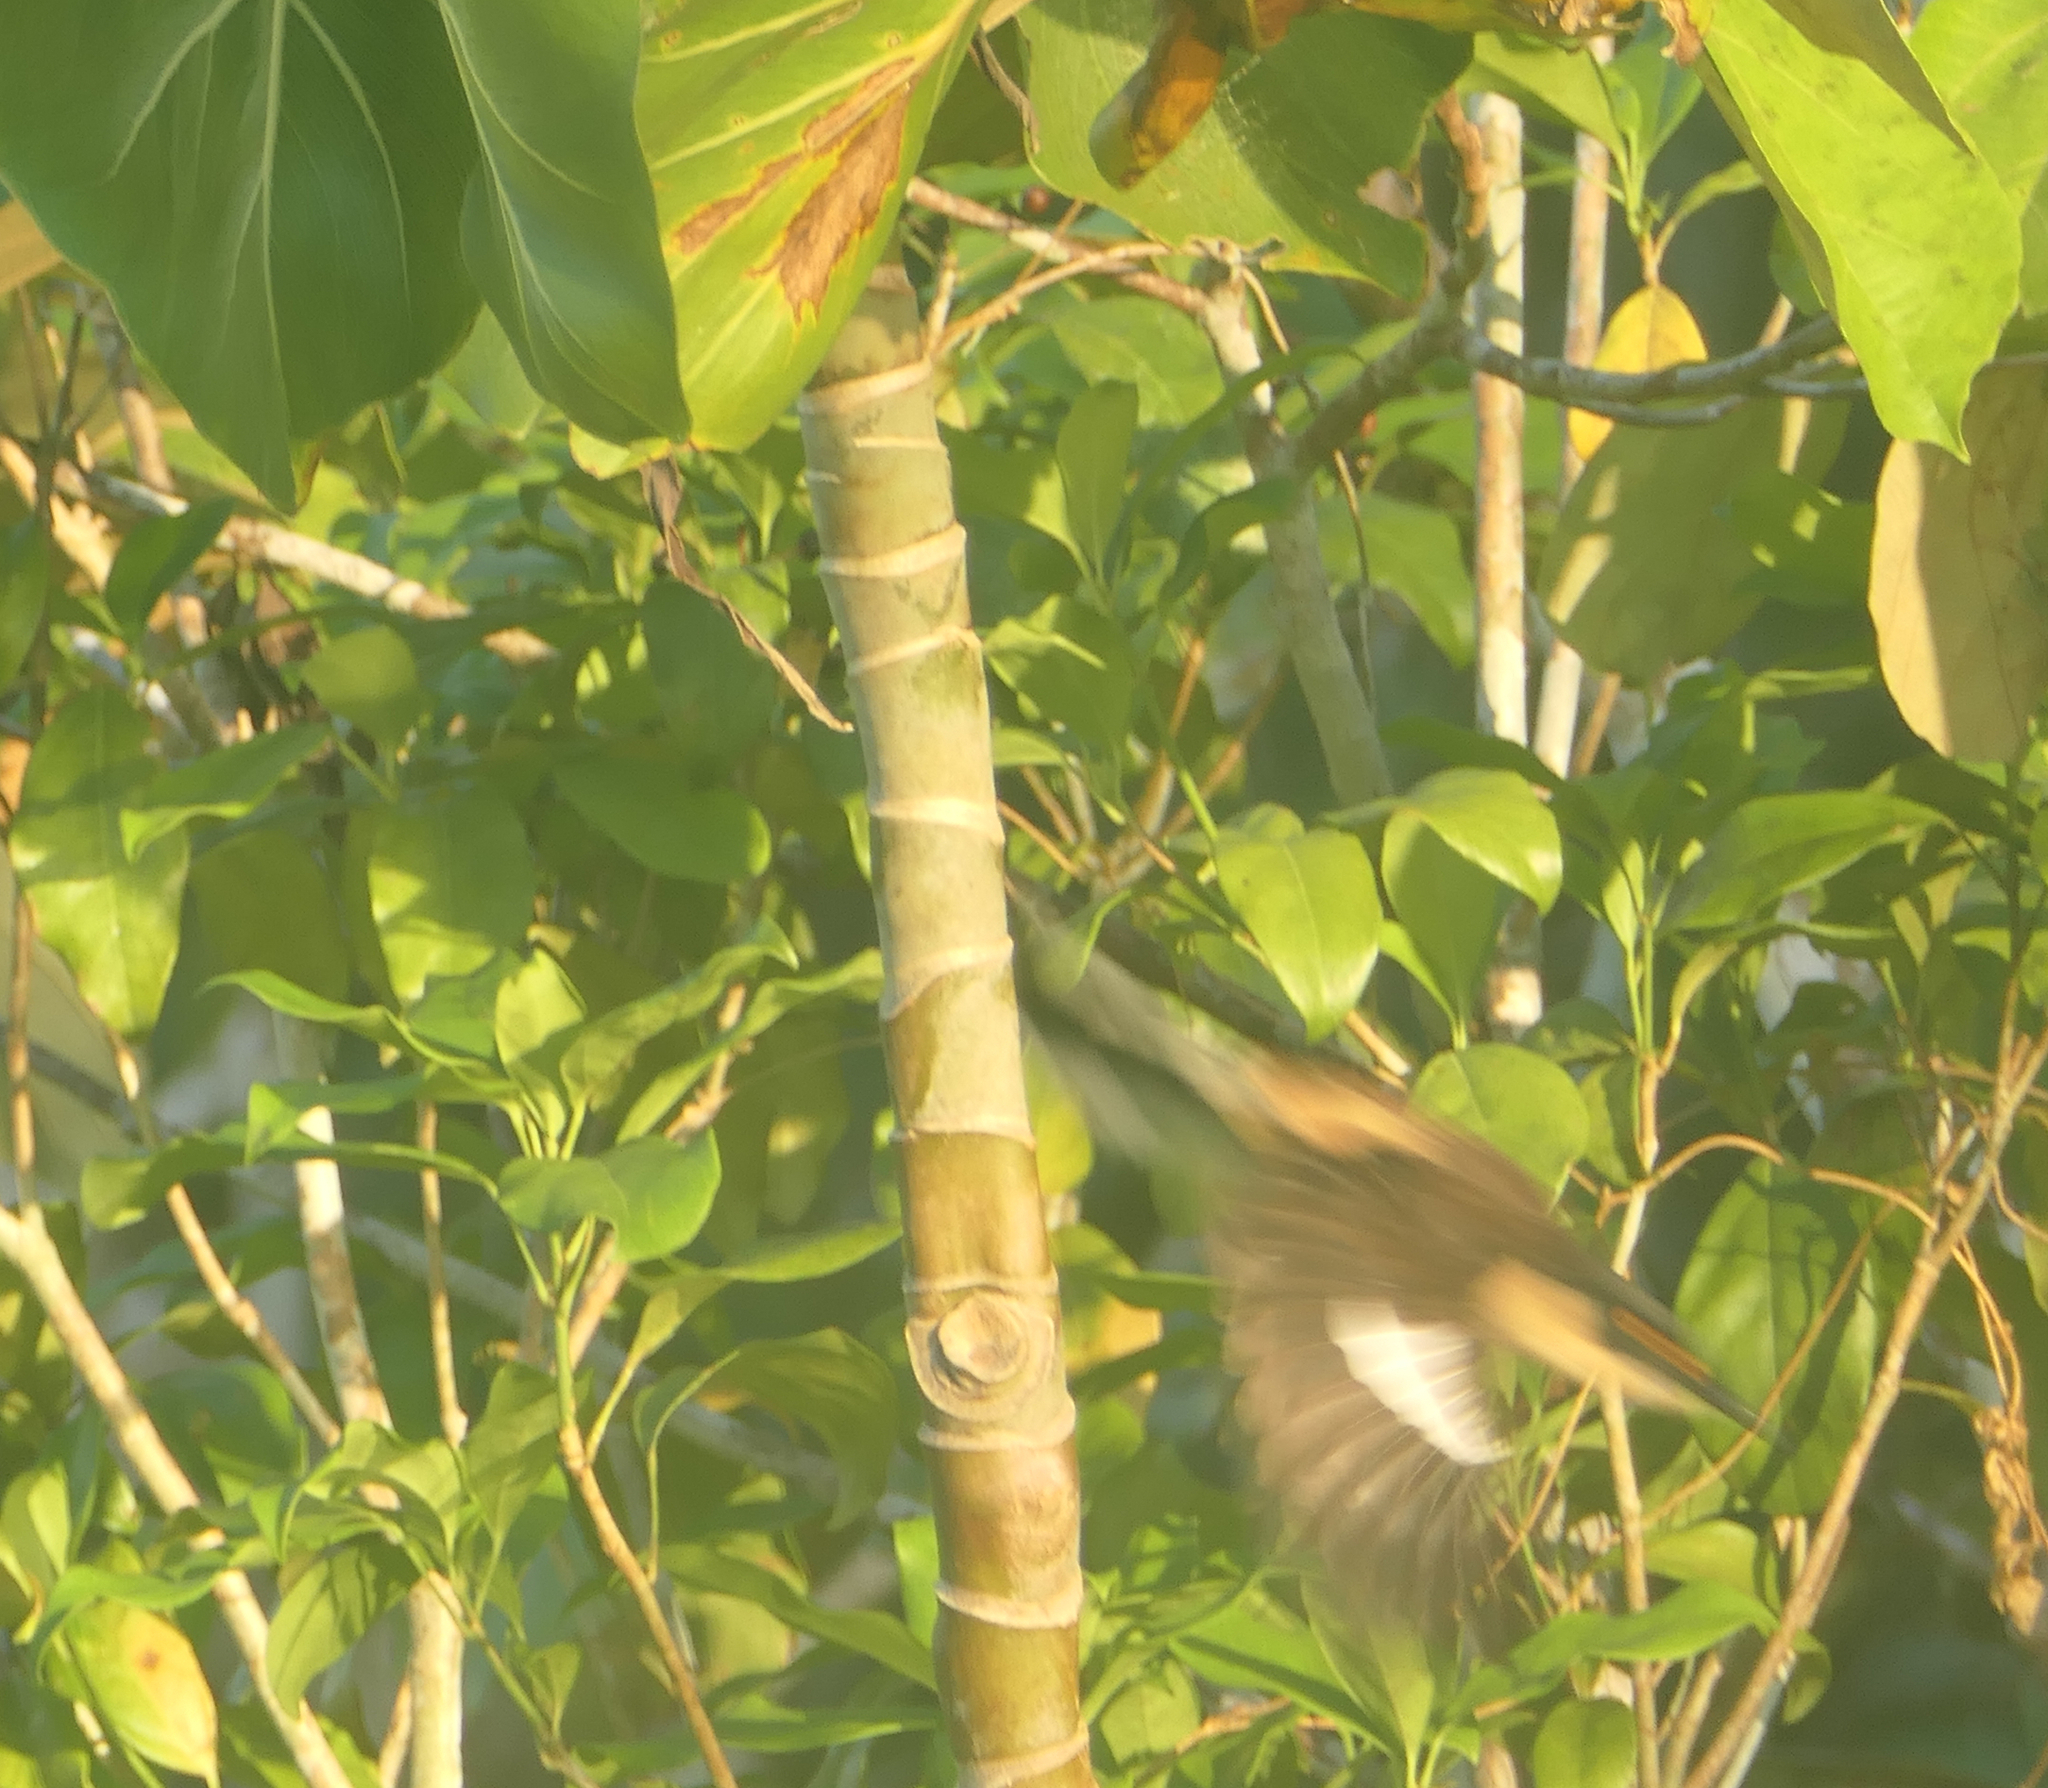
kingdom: Animalia
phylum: Chordata
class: Aves
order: Passeriformes
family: Donacobiidae
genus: Donacobius
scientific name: Donacobius atricapilla
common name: Black-capped donacobius
